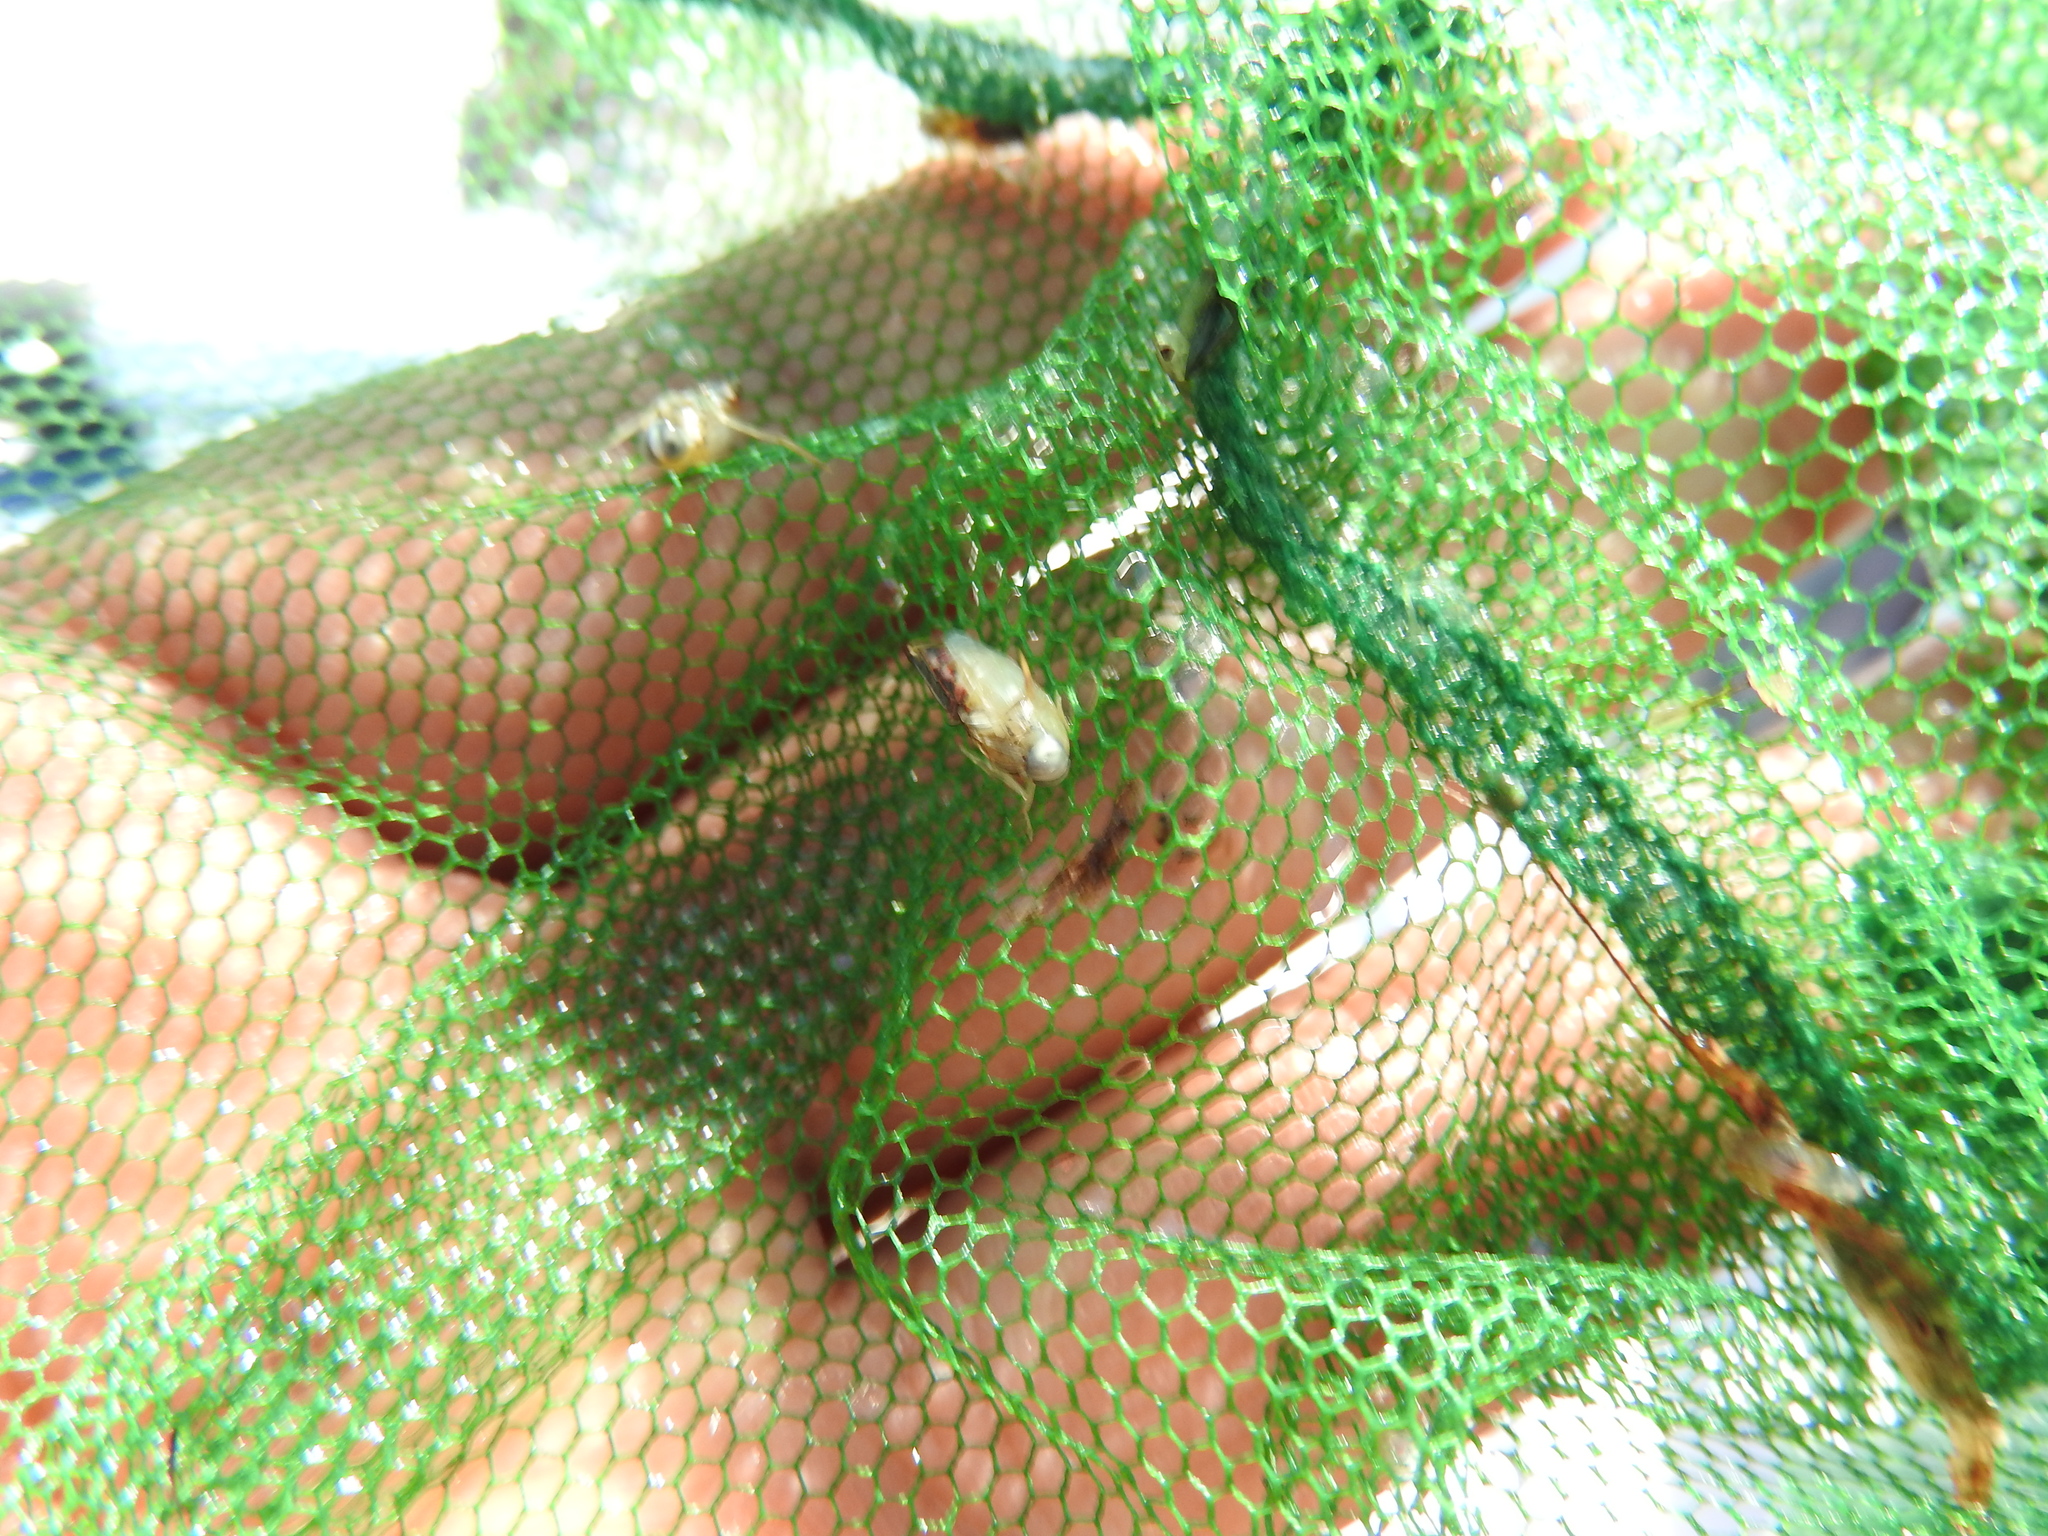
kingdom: Animalia
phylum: Arthropoda
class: Insecta
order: Hemiptera
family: Notonectidae
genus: Buenoa
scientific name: Buenoa
